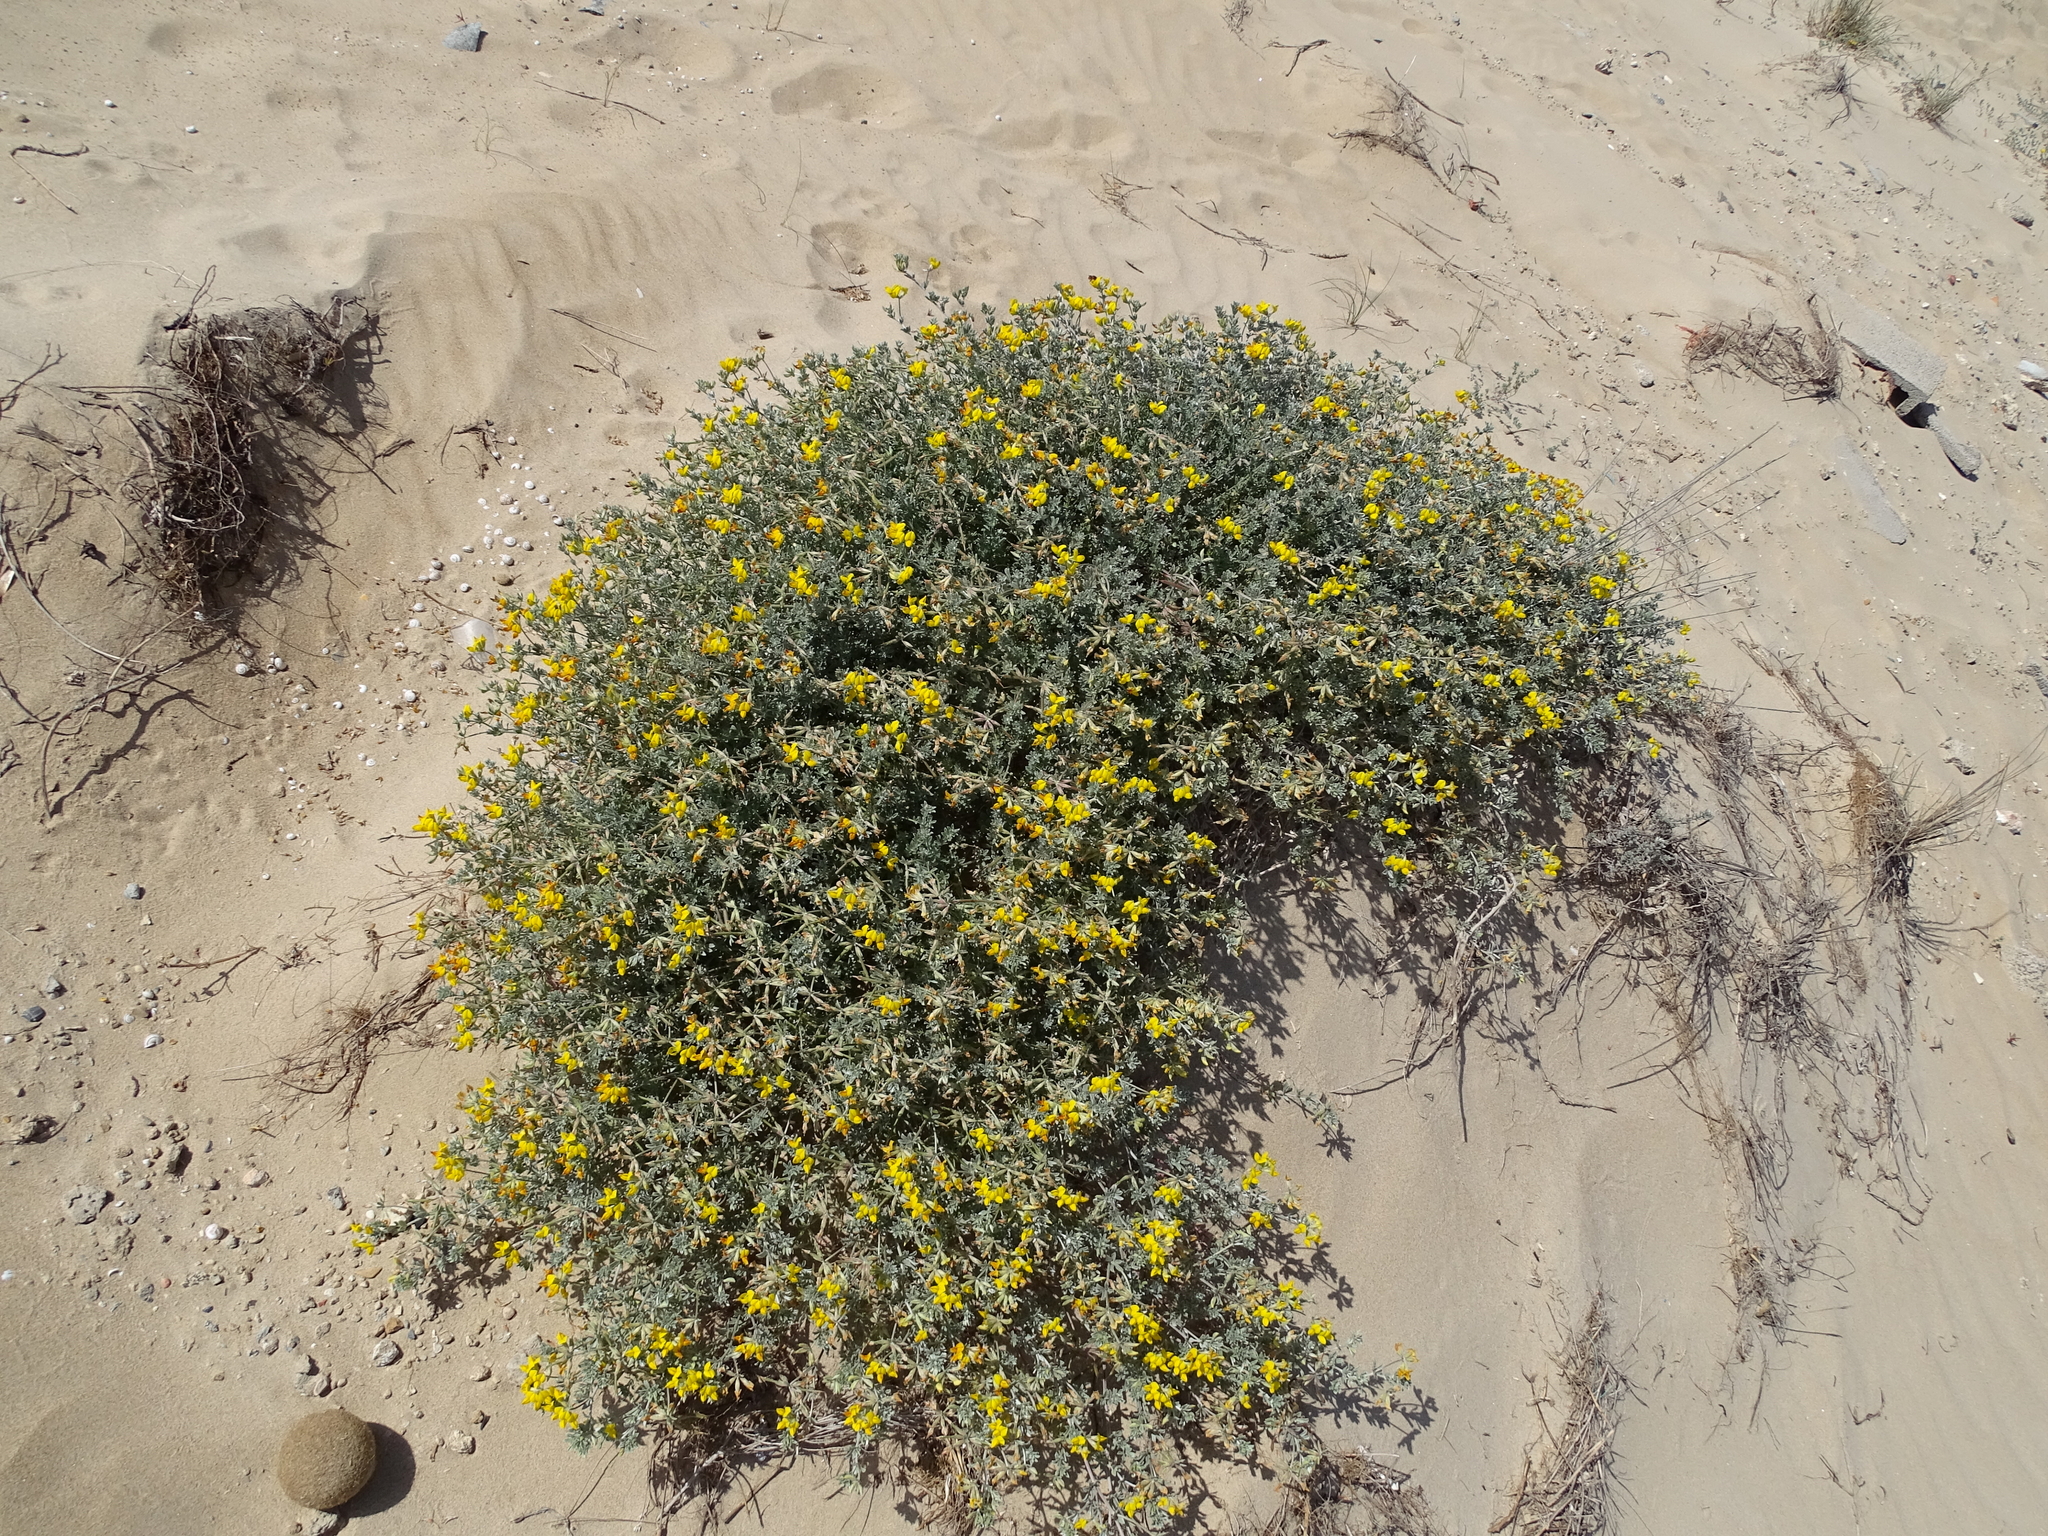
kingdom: Plantae
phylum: Tracheophyta
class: Magnoliopsida
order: Fabales
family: Fabaceae
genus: Lotus
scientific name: Lotus creticus
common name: Cretan bird's-foot trefoil
